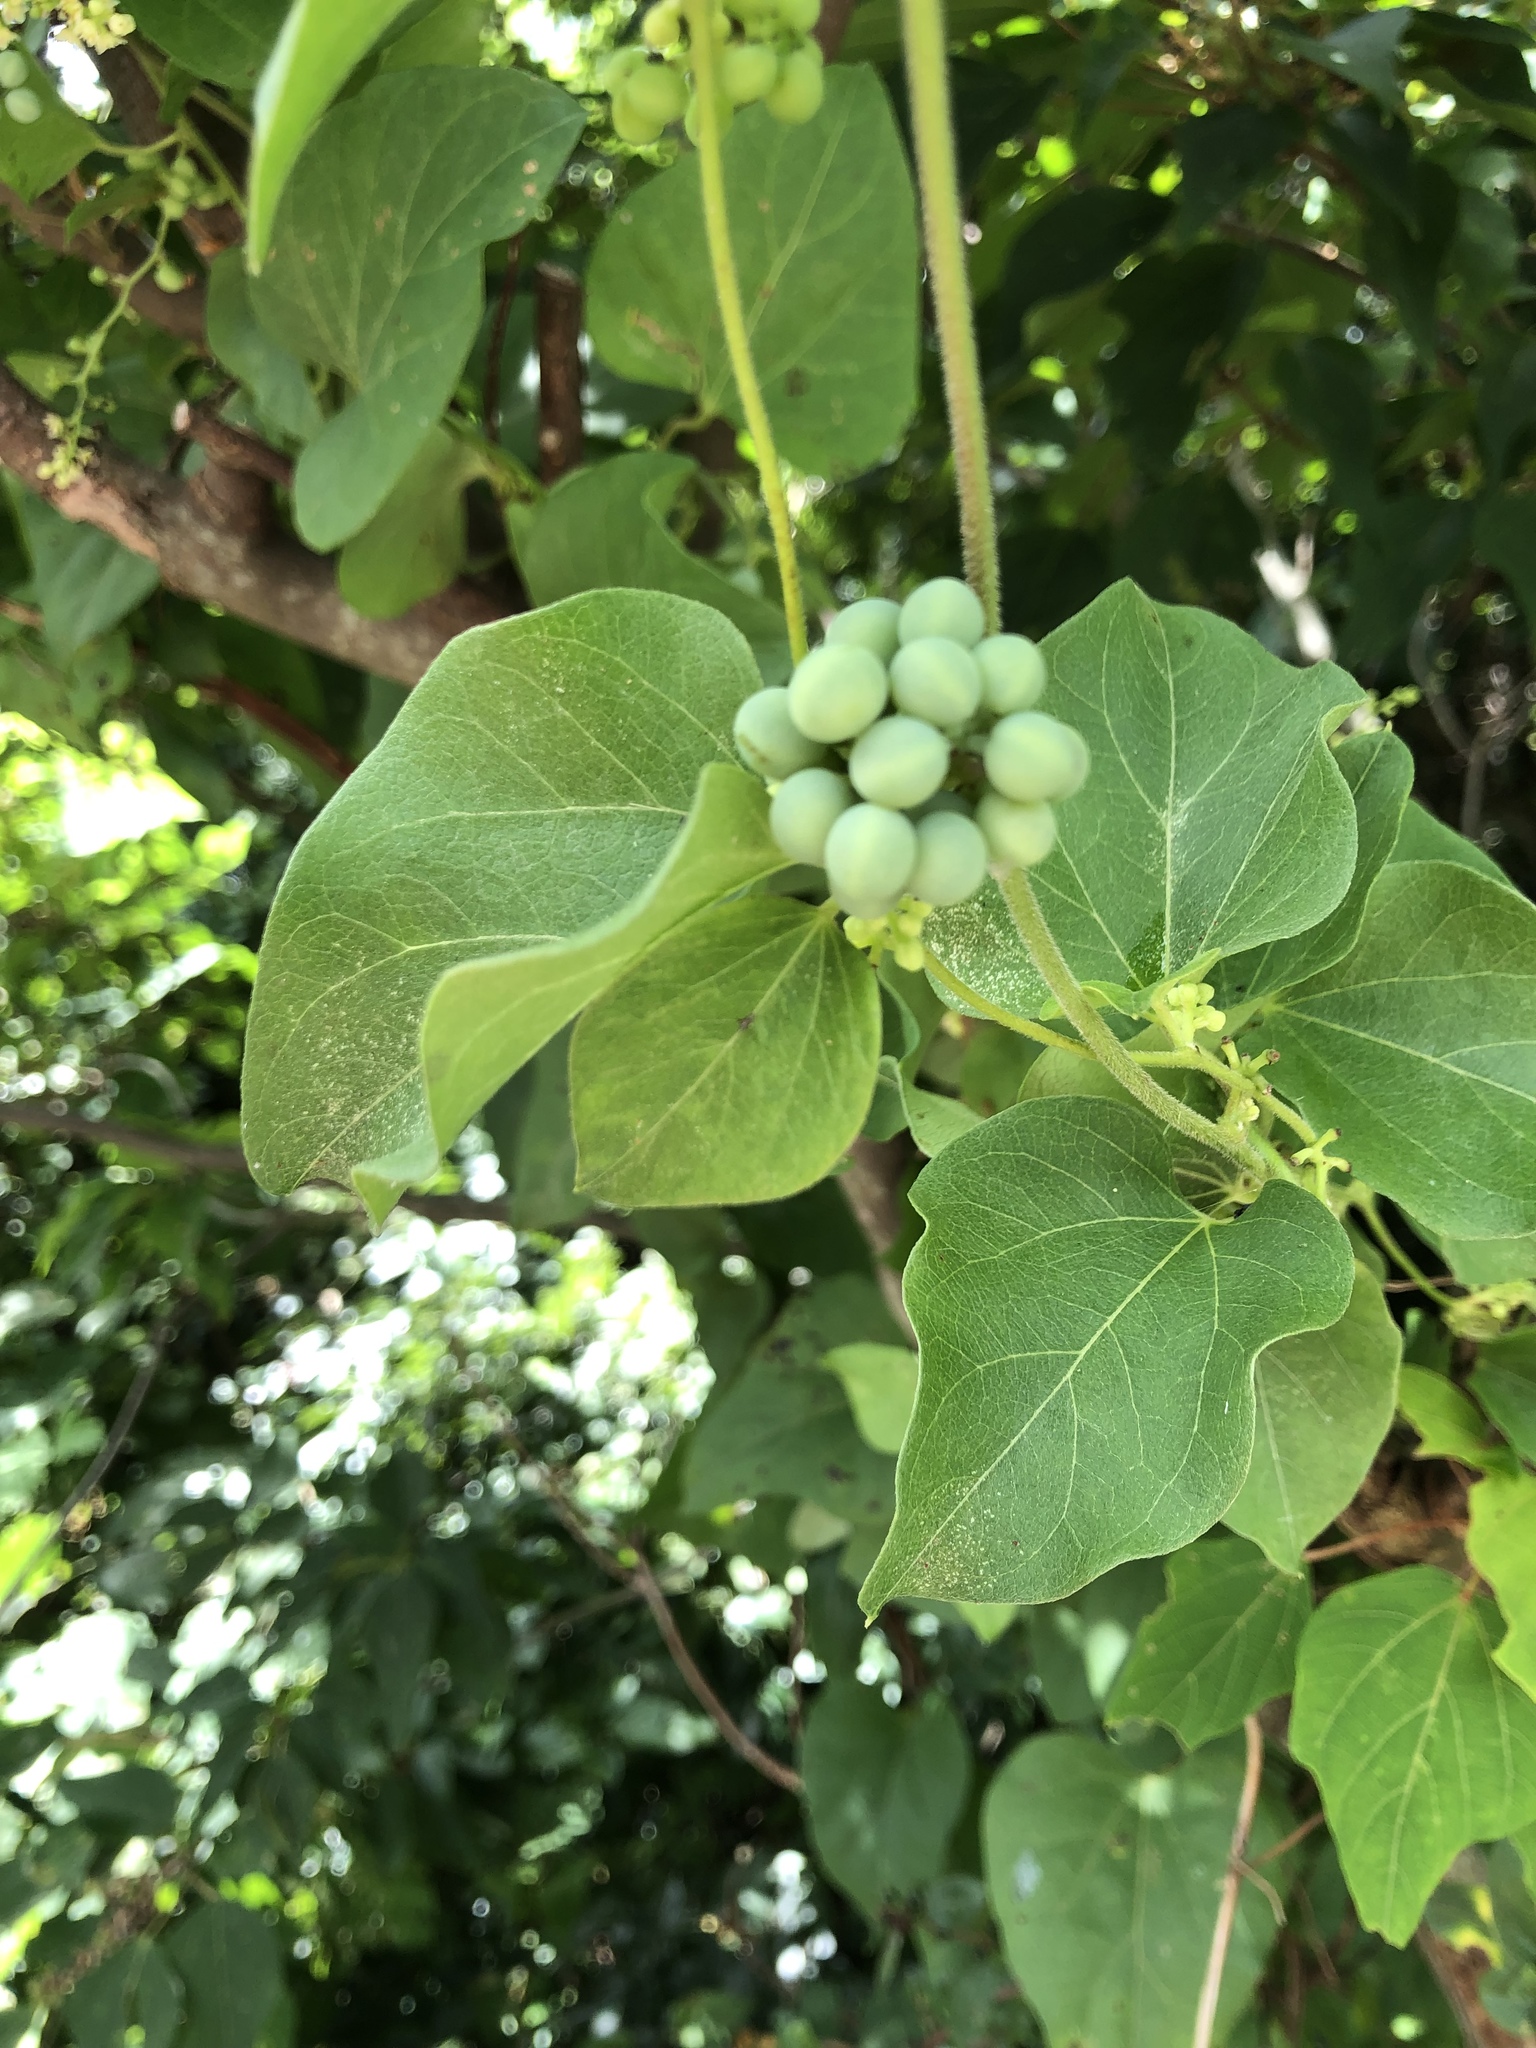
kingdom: Plantae
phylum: Tracheophyta
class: Magnoliopsida
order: Ranunculales
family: Menispermaceae
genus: Cocculus
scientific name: Cocculus orbiculatus
